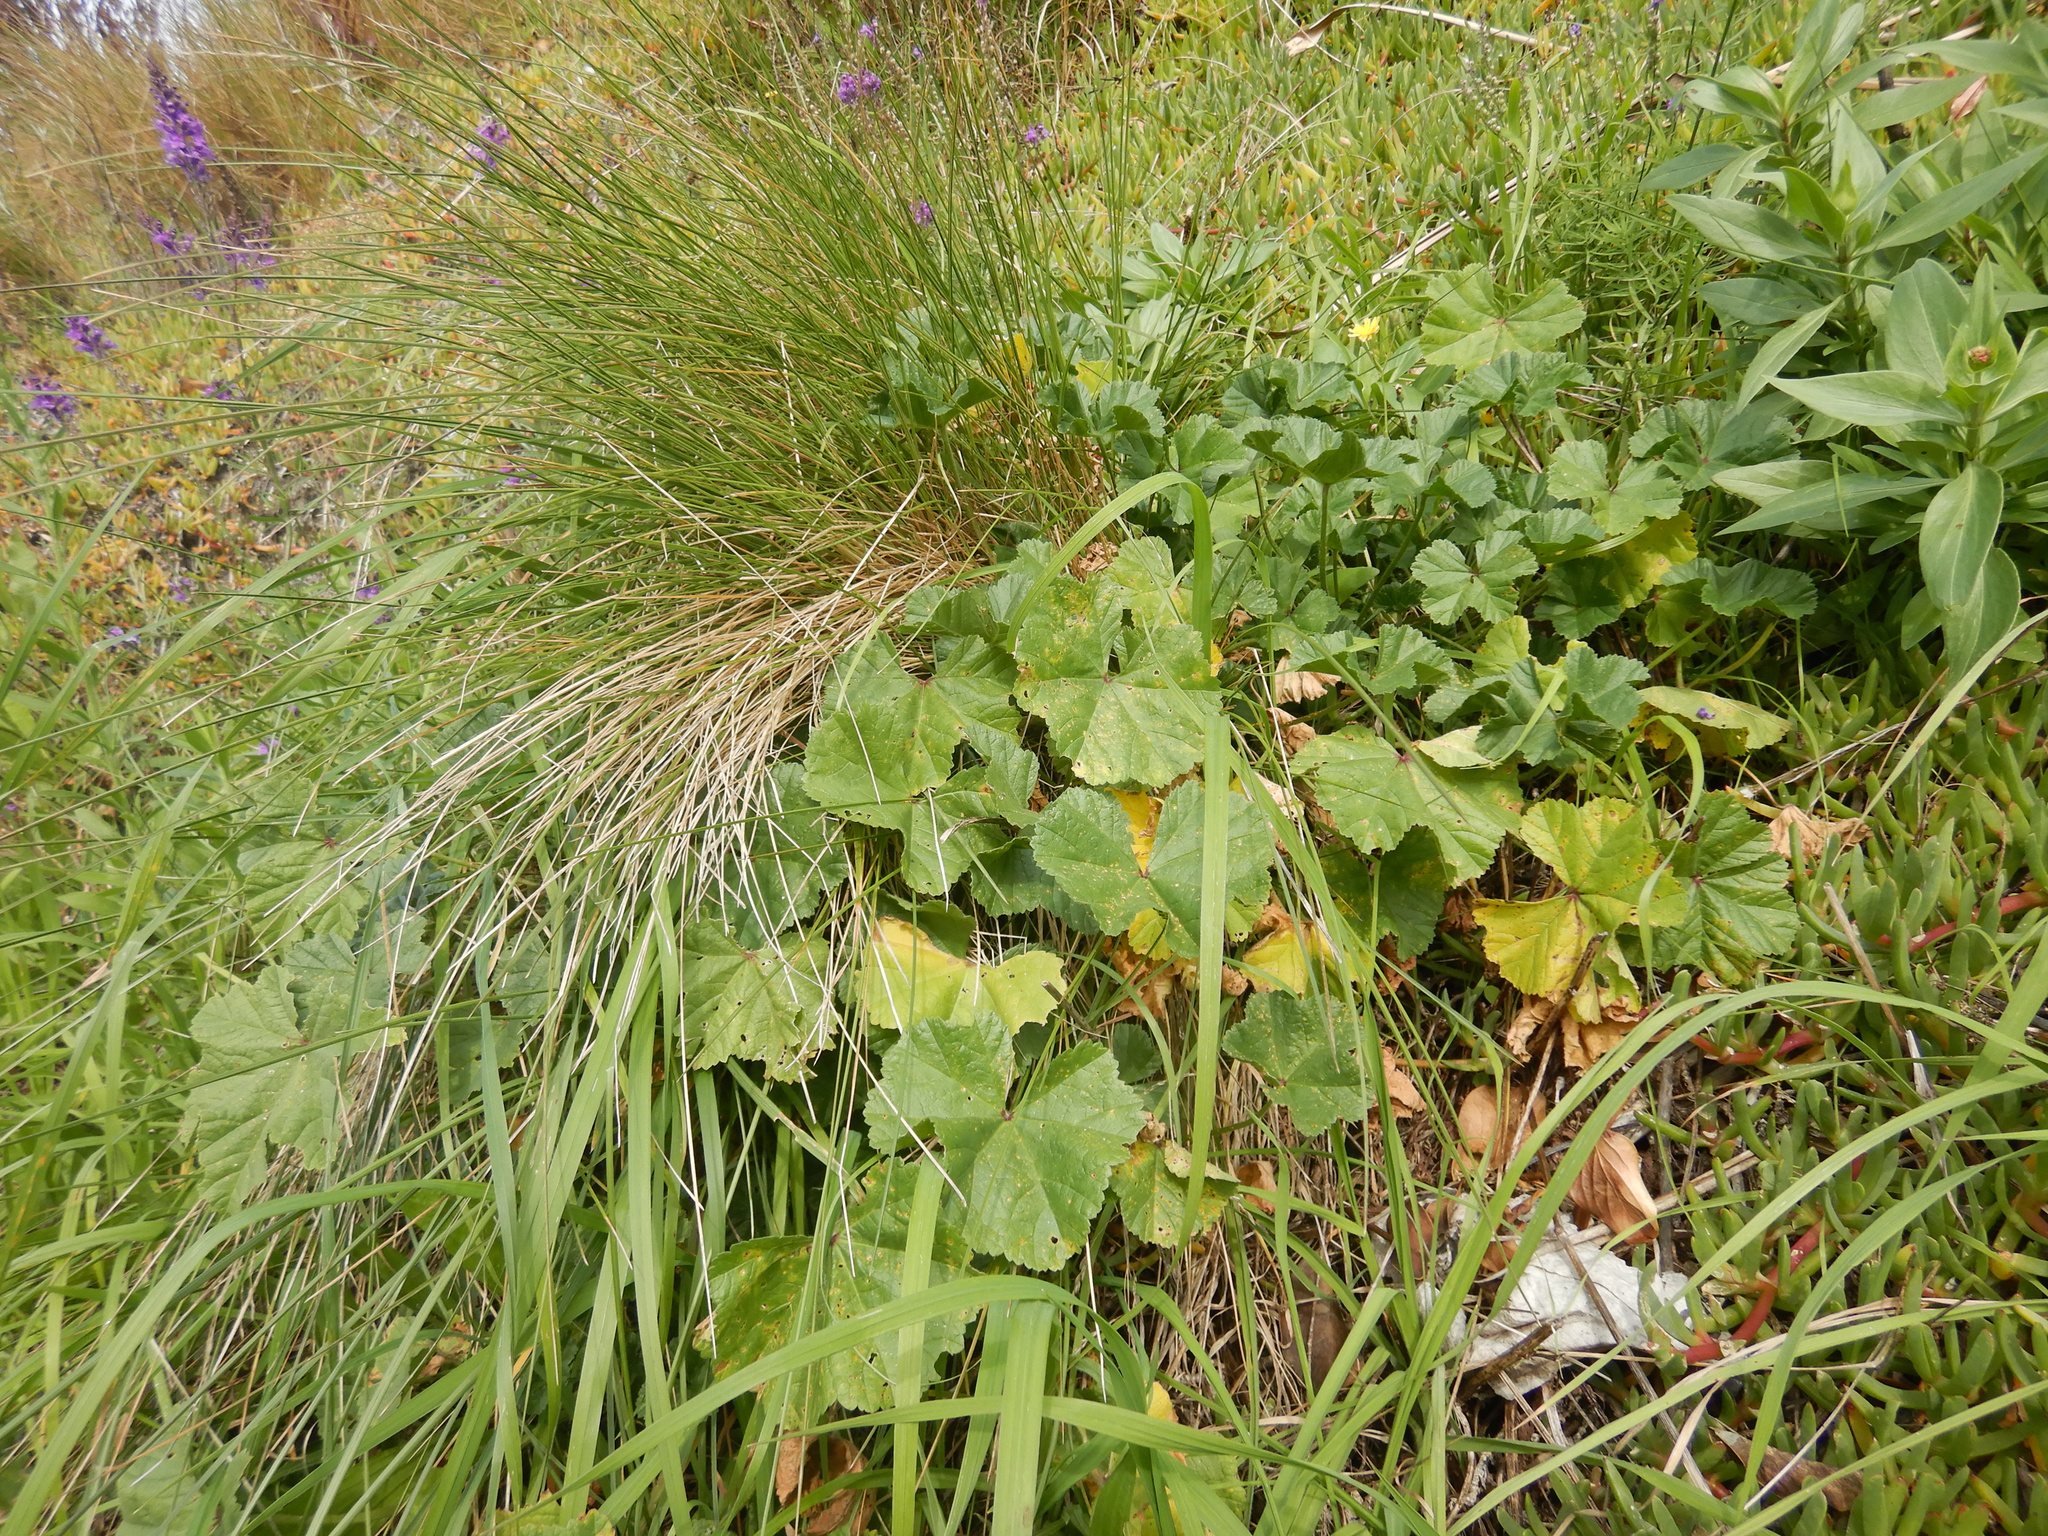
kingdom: Plantae
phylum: Tracheophyta
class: Magnoliopsida
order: Malvales
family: Malvaceae
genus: Malva
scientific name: Malva sylvestris
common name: Common mallow
